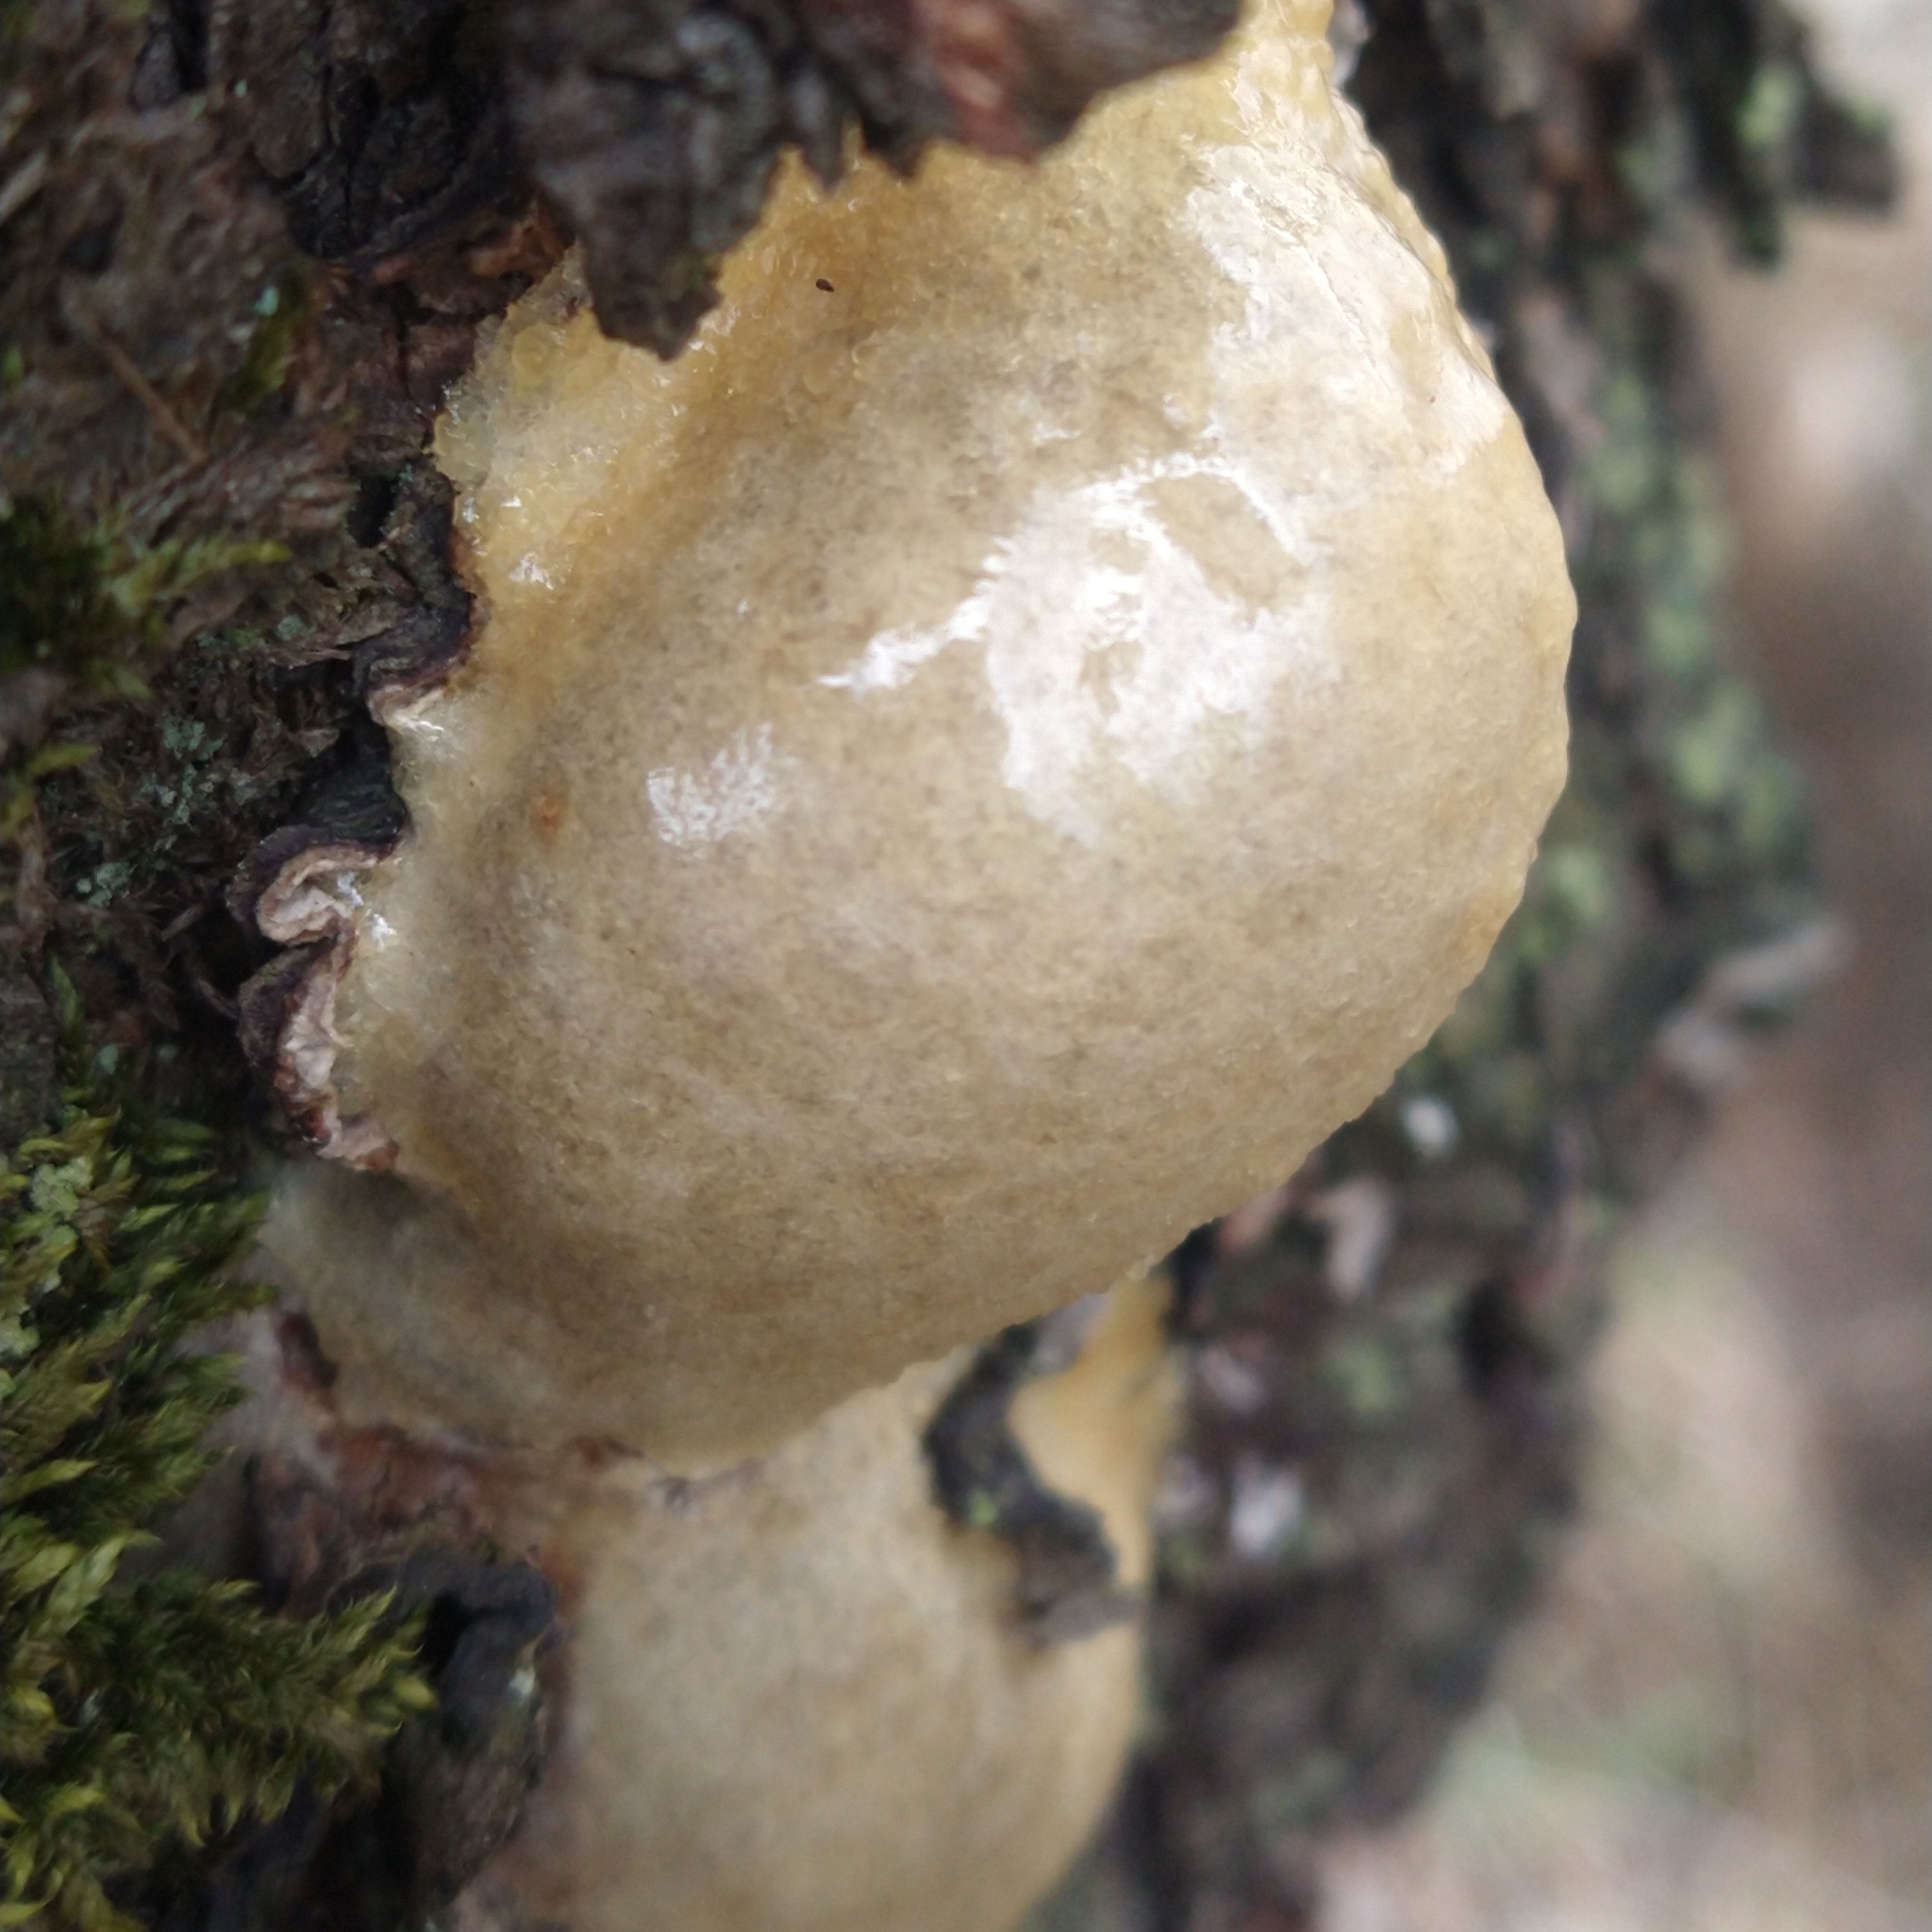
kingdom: Protozoa
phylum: Mycetozoa
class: Myxomycetes
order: Cribrariales
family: Tubiferaceae
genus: Reticularia
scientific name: Reticularia lycoperdon
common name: False puffball
